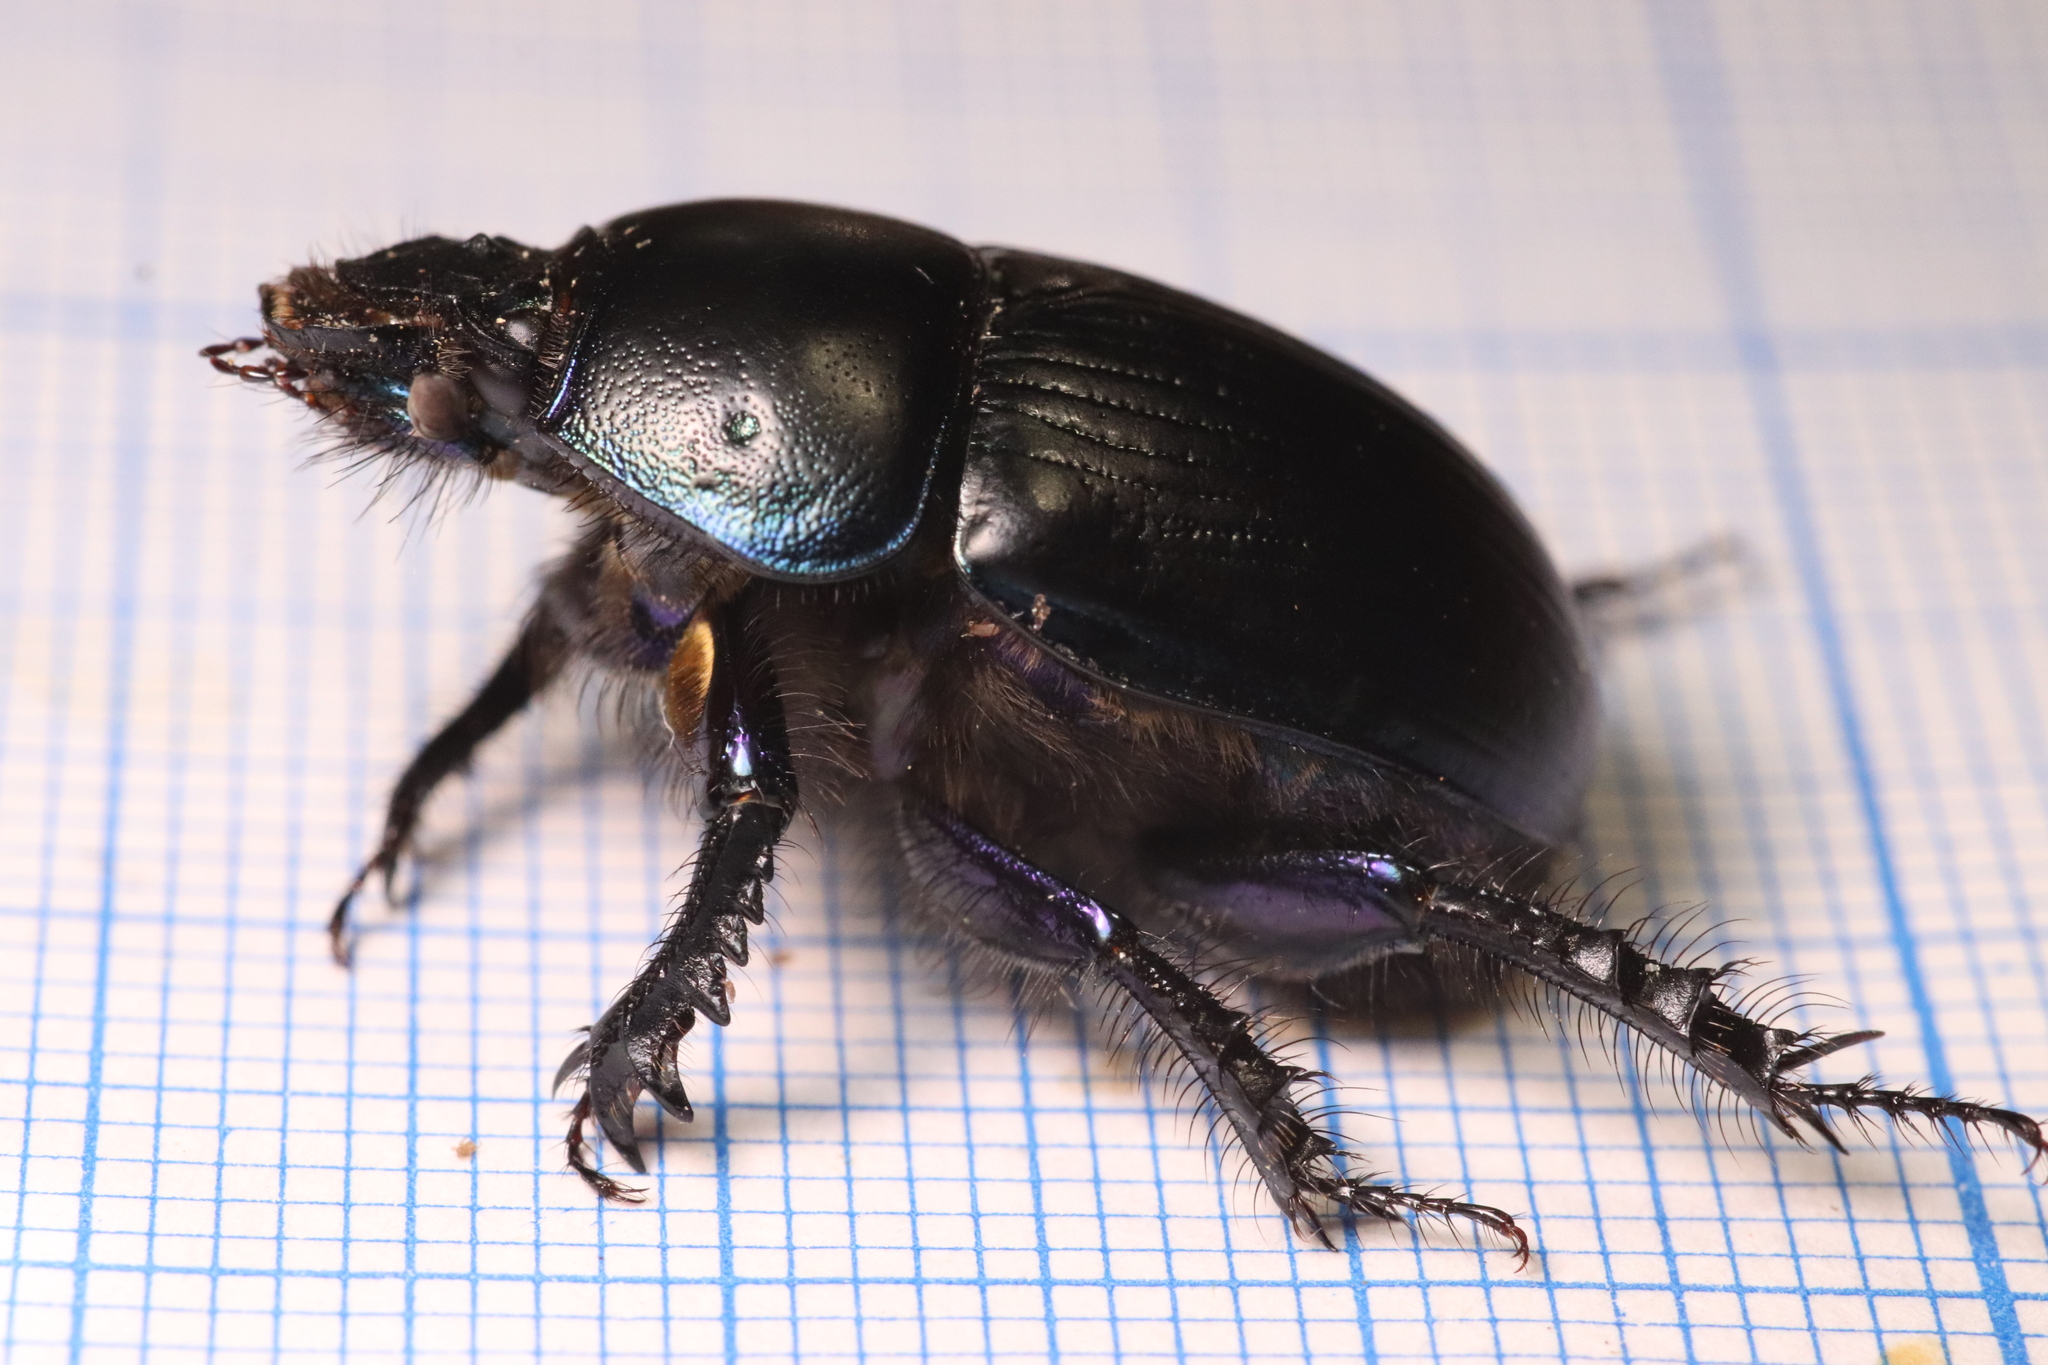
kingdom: Animalia
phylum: Arthropoda
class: Insecta
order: Coleoptera
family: Geotrupidae
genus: Geotrupes
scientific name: Geotrupes spiniger
